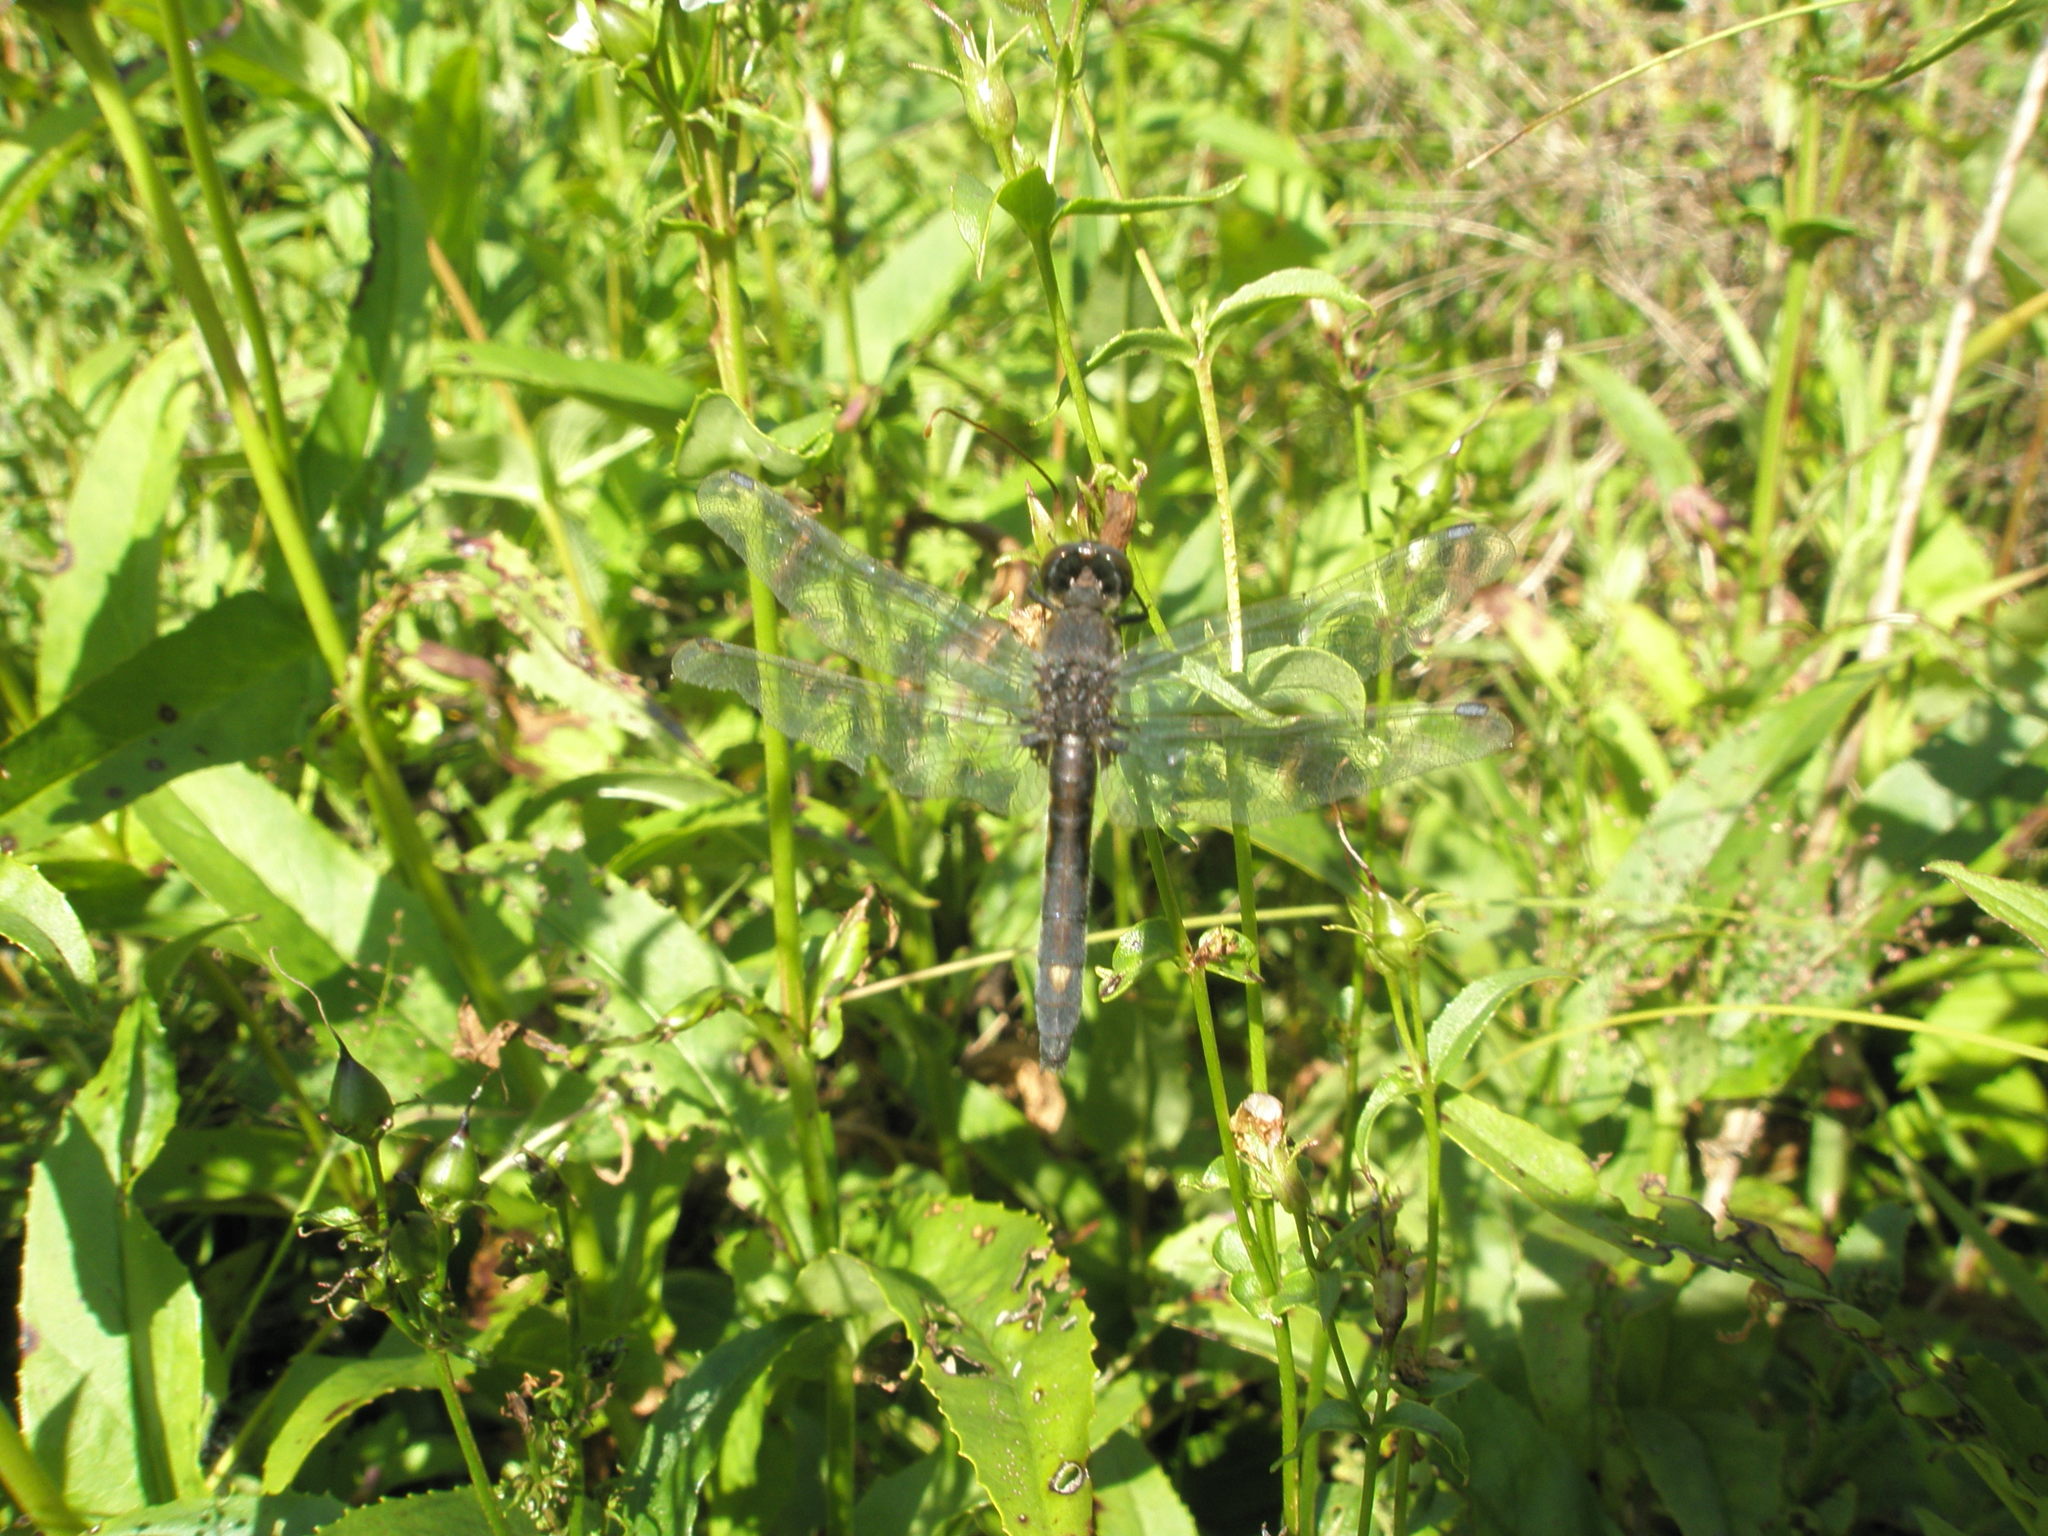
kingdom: Animalia
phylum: Arthropoda
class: Insecta
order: Odonata
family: Libellulidae
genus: Leucorrhinia
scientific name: Leucorrhinia intacta
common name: Dot-tailed whiteface
